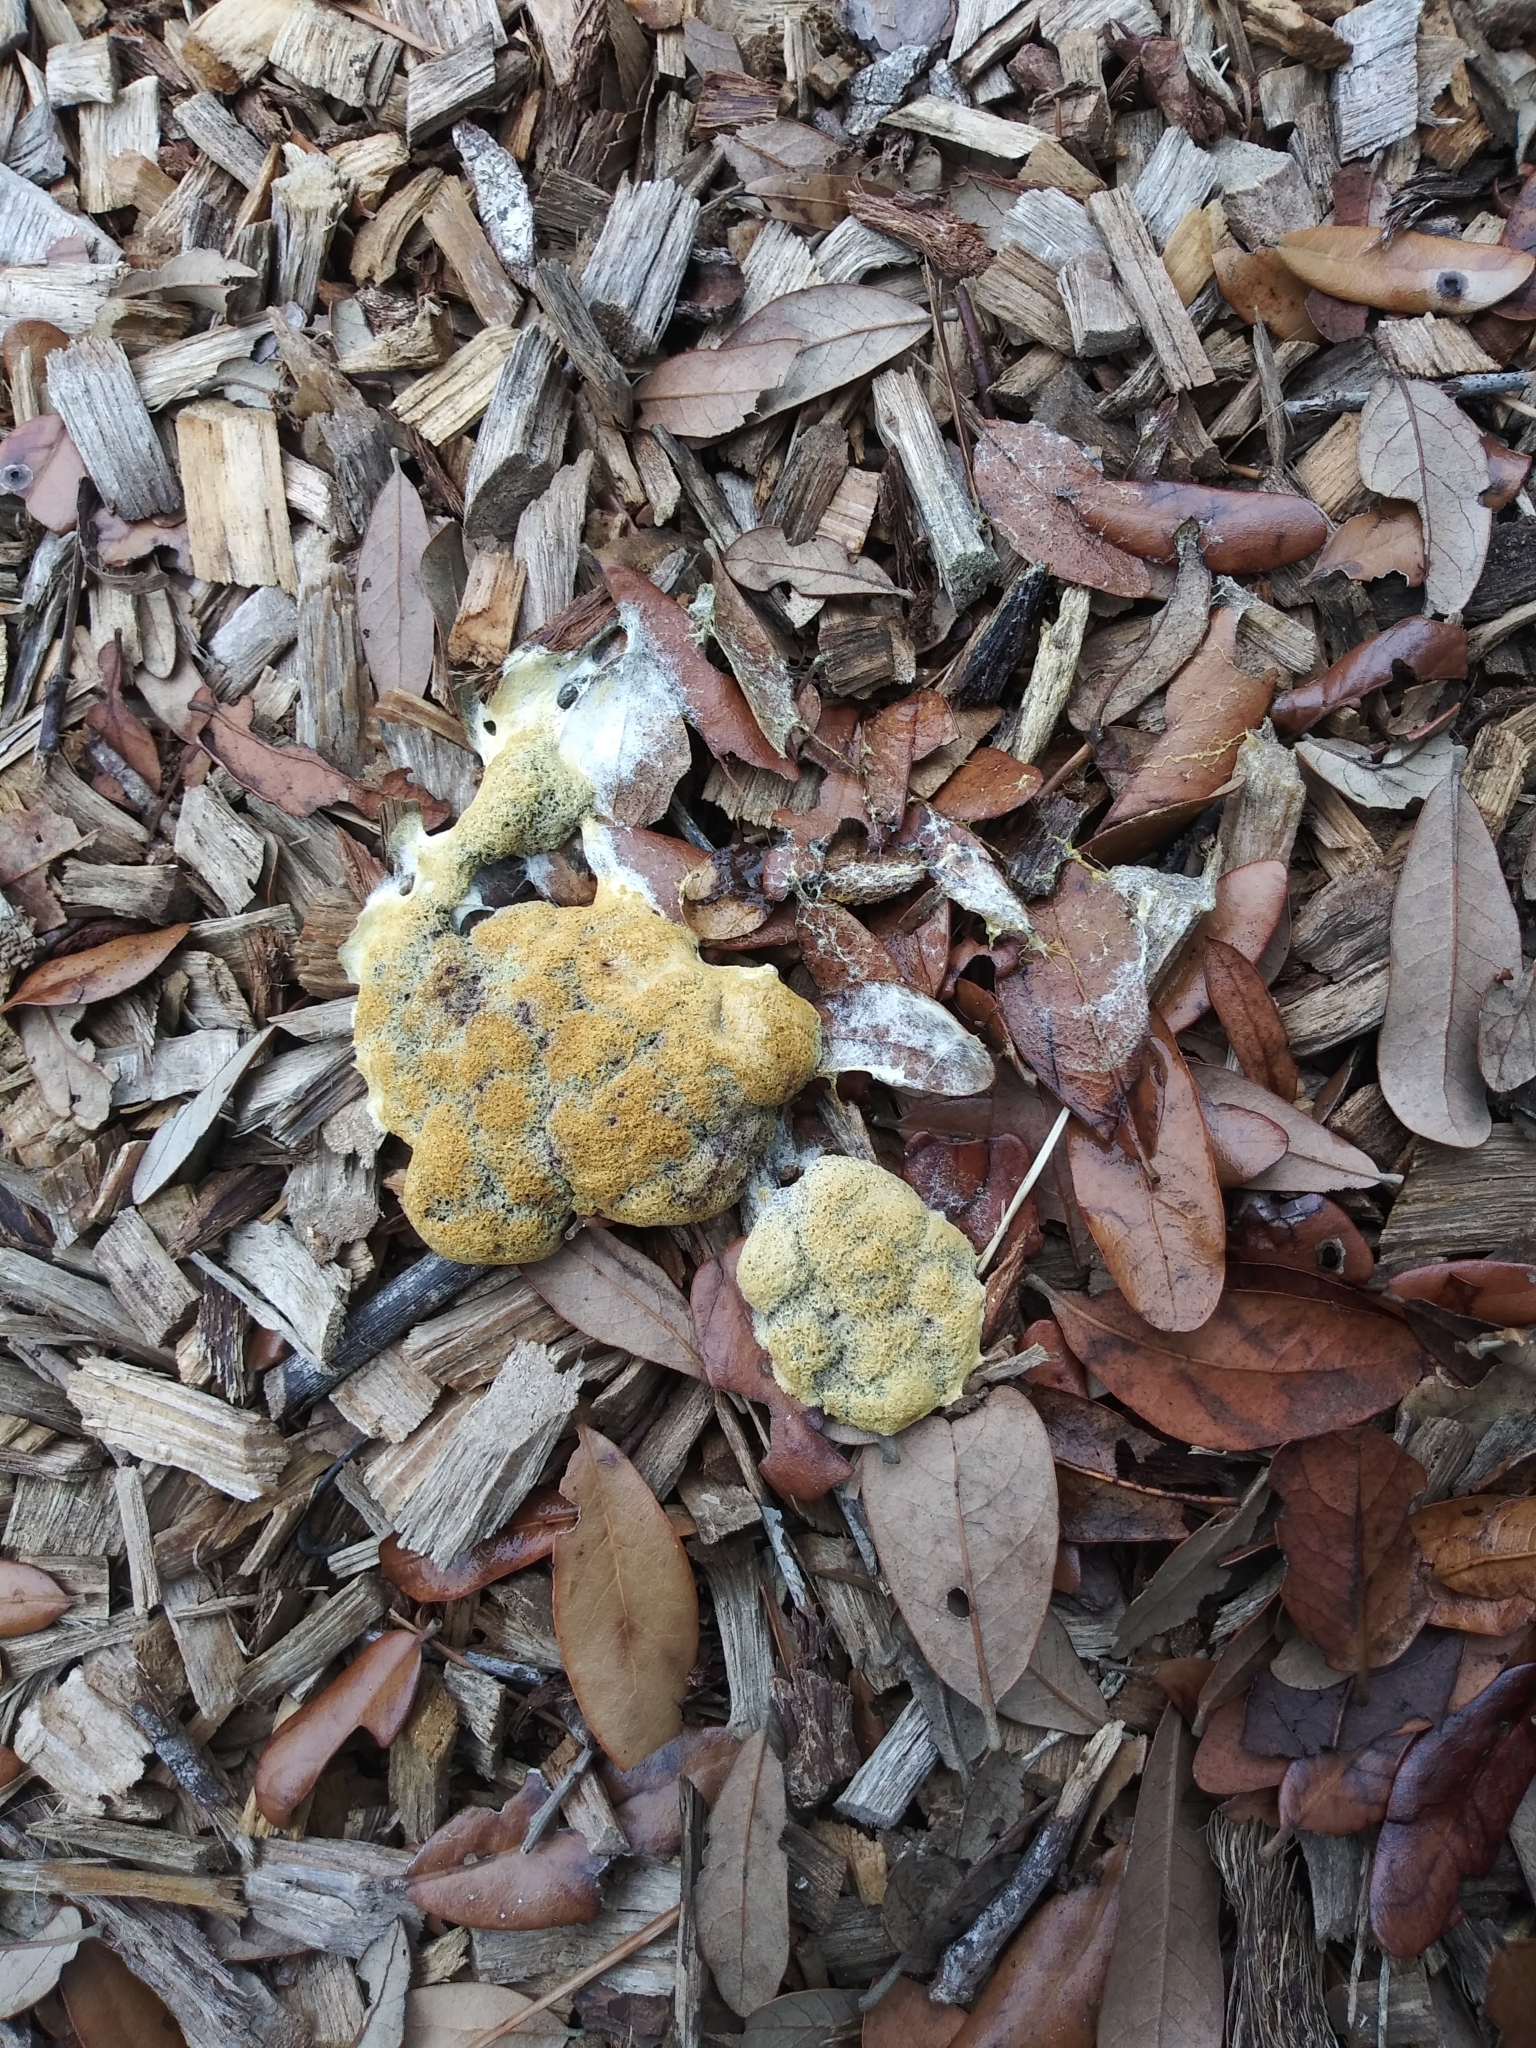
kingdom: Protozoa
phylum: Mycetozoa
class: Myxomycetes
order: Physarales
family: Physaraceae
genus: Fuligo
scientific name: Fuligo septica
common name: Dog vomit slime mold
